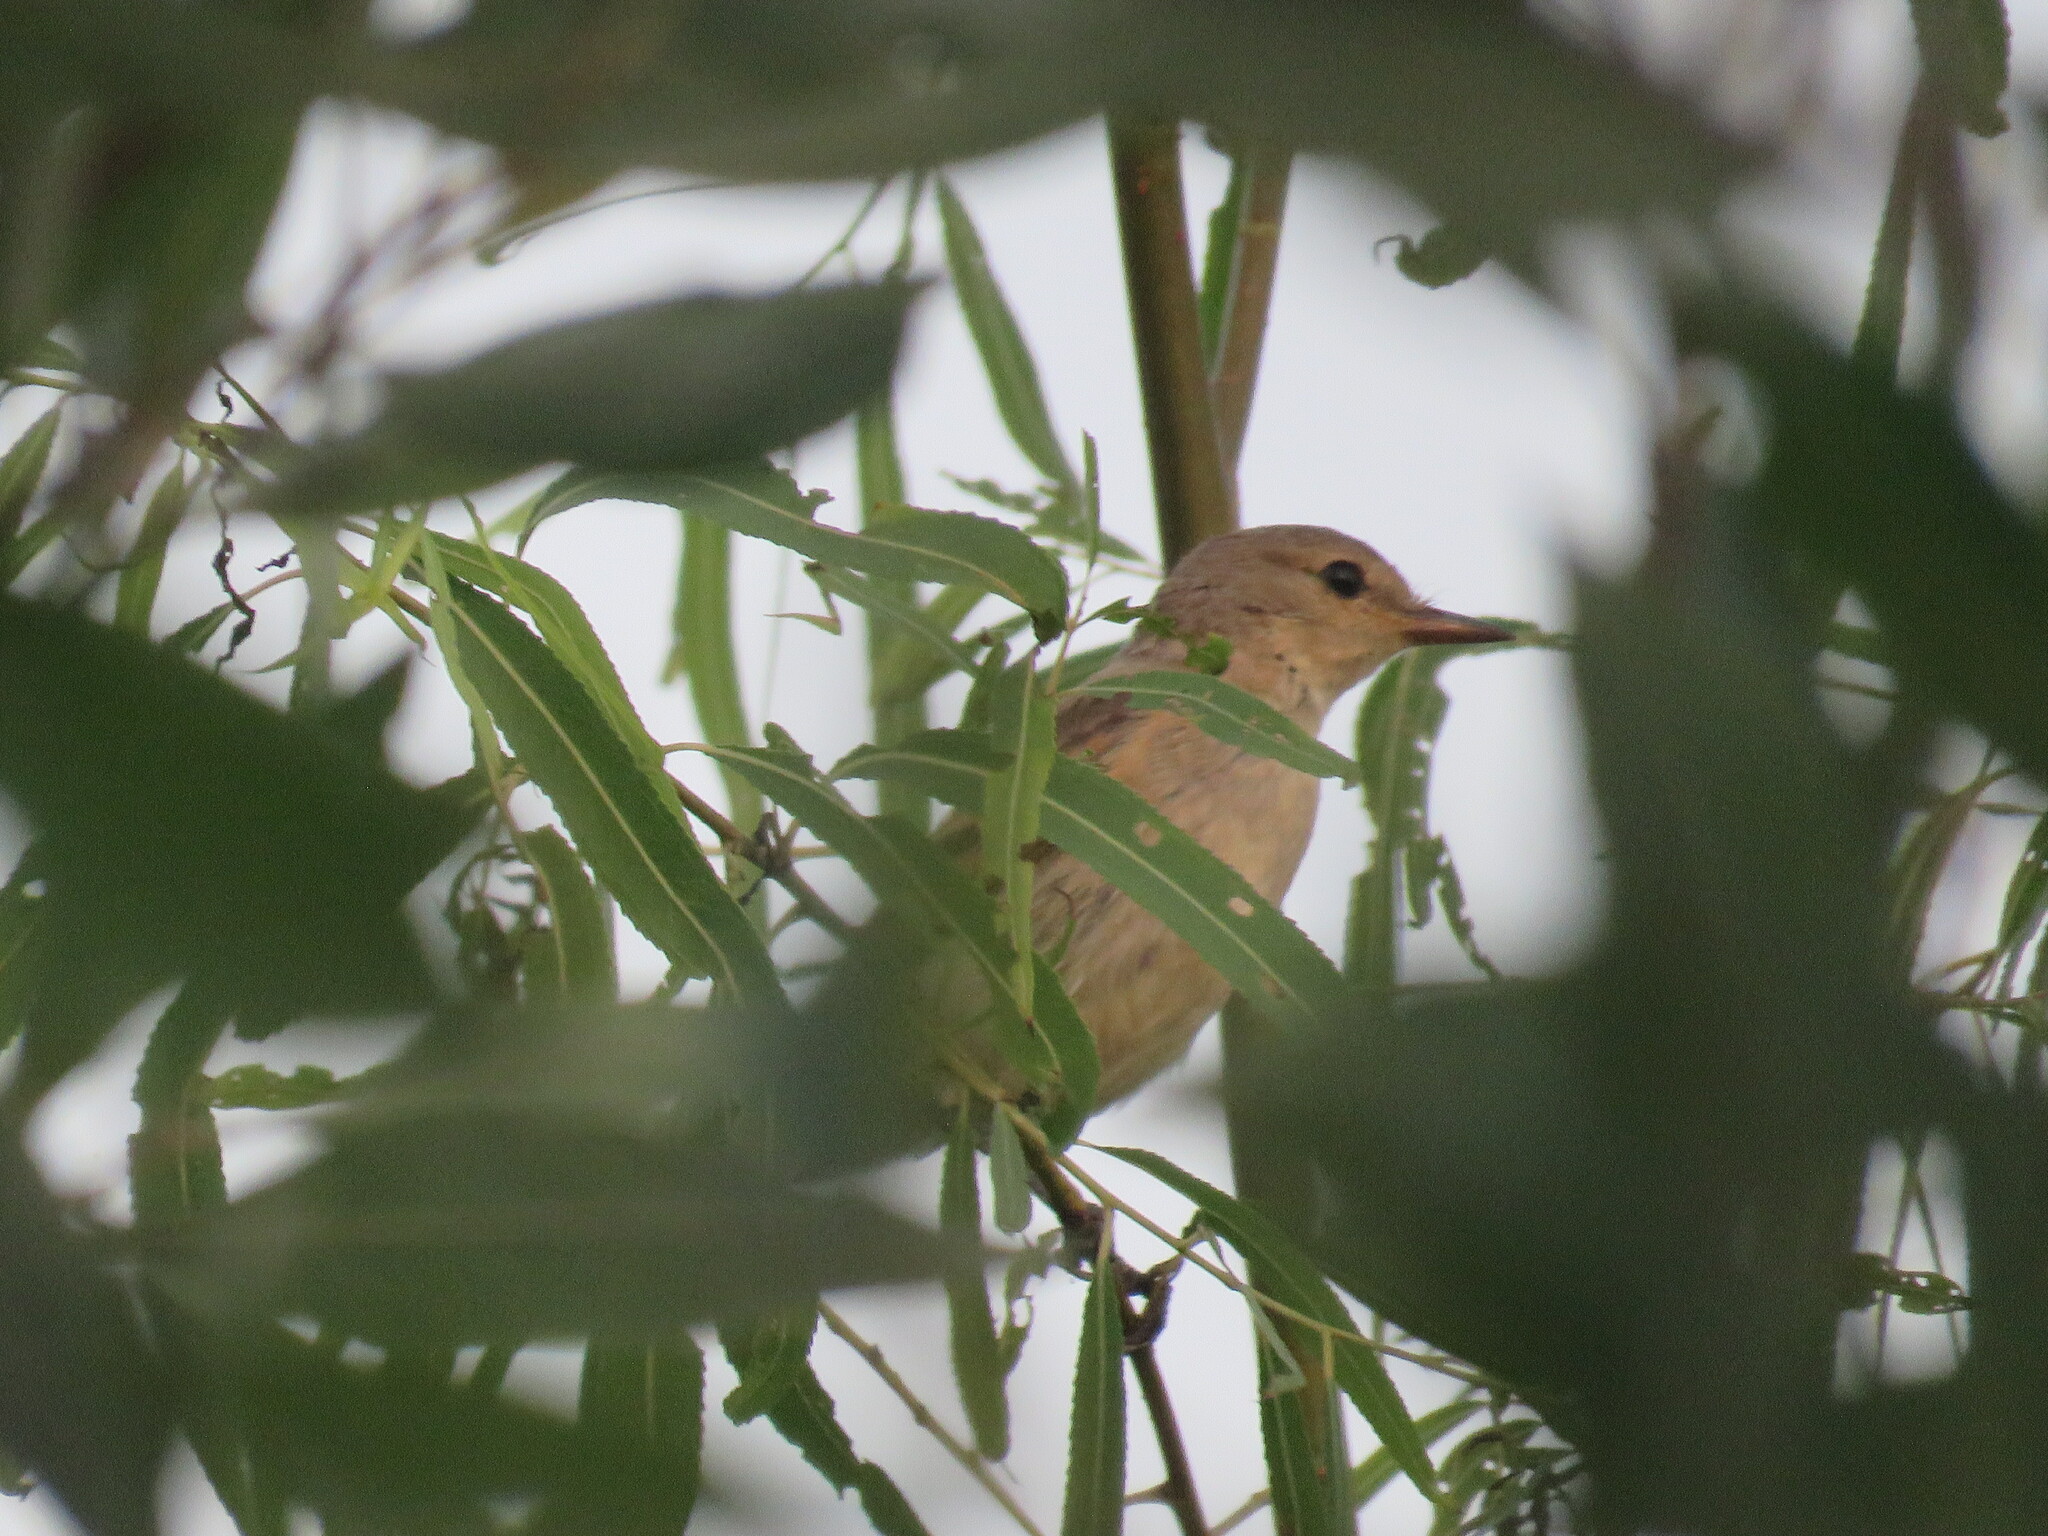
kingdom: Animalia
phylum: Chordata
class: Aves
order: Passeriformes
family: Tyrannidae
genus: Muscisaxicola
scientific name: Muscisaxicola fluviatilis
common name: Little ground tyrant
